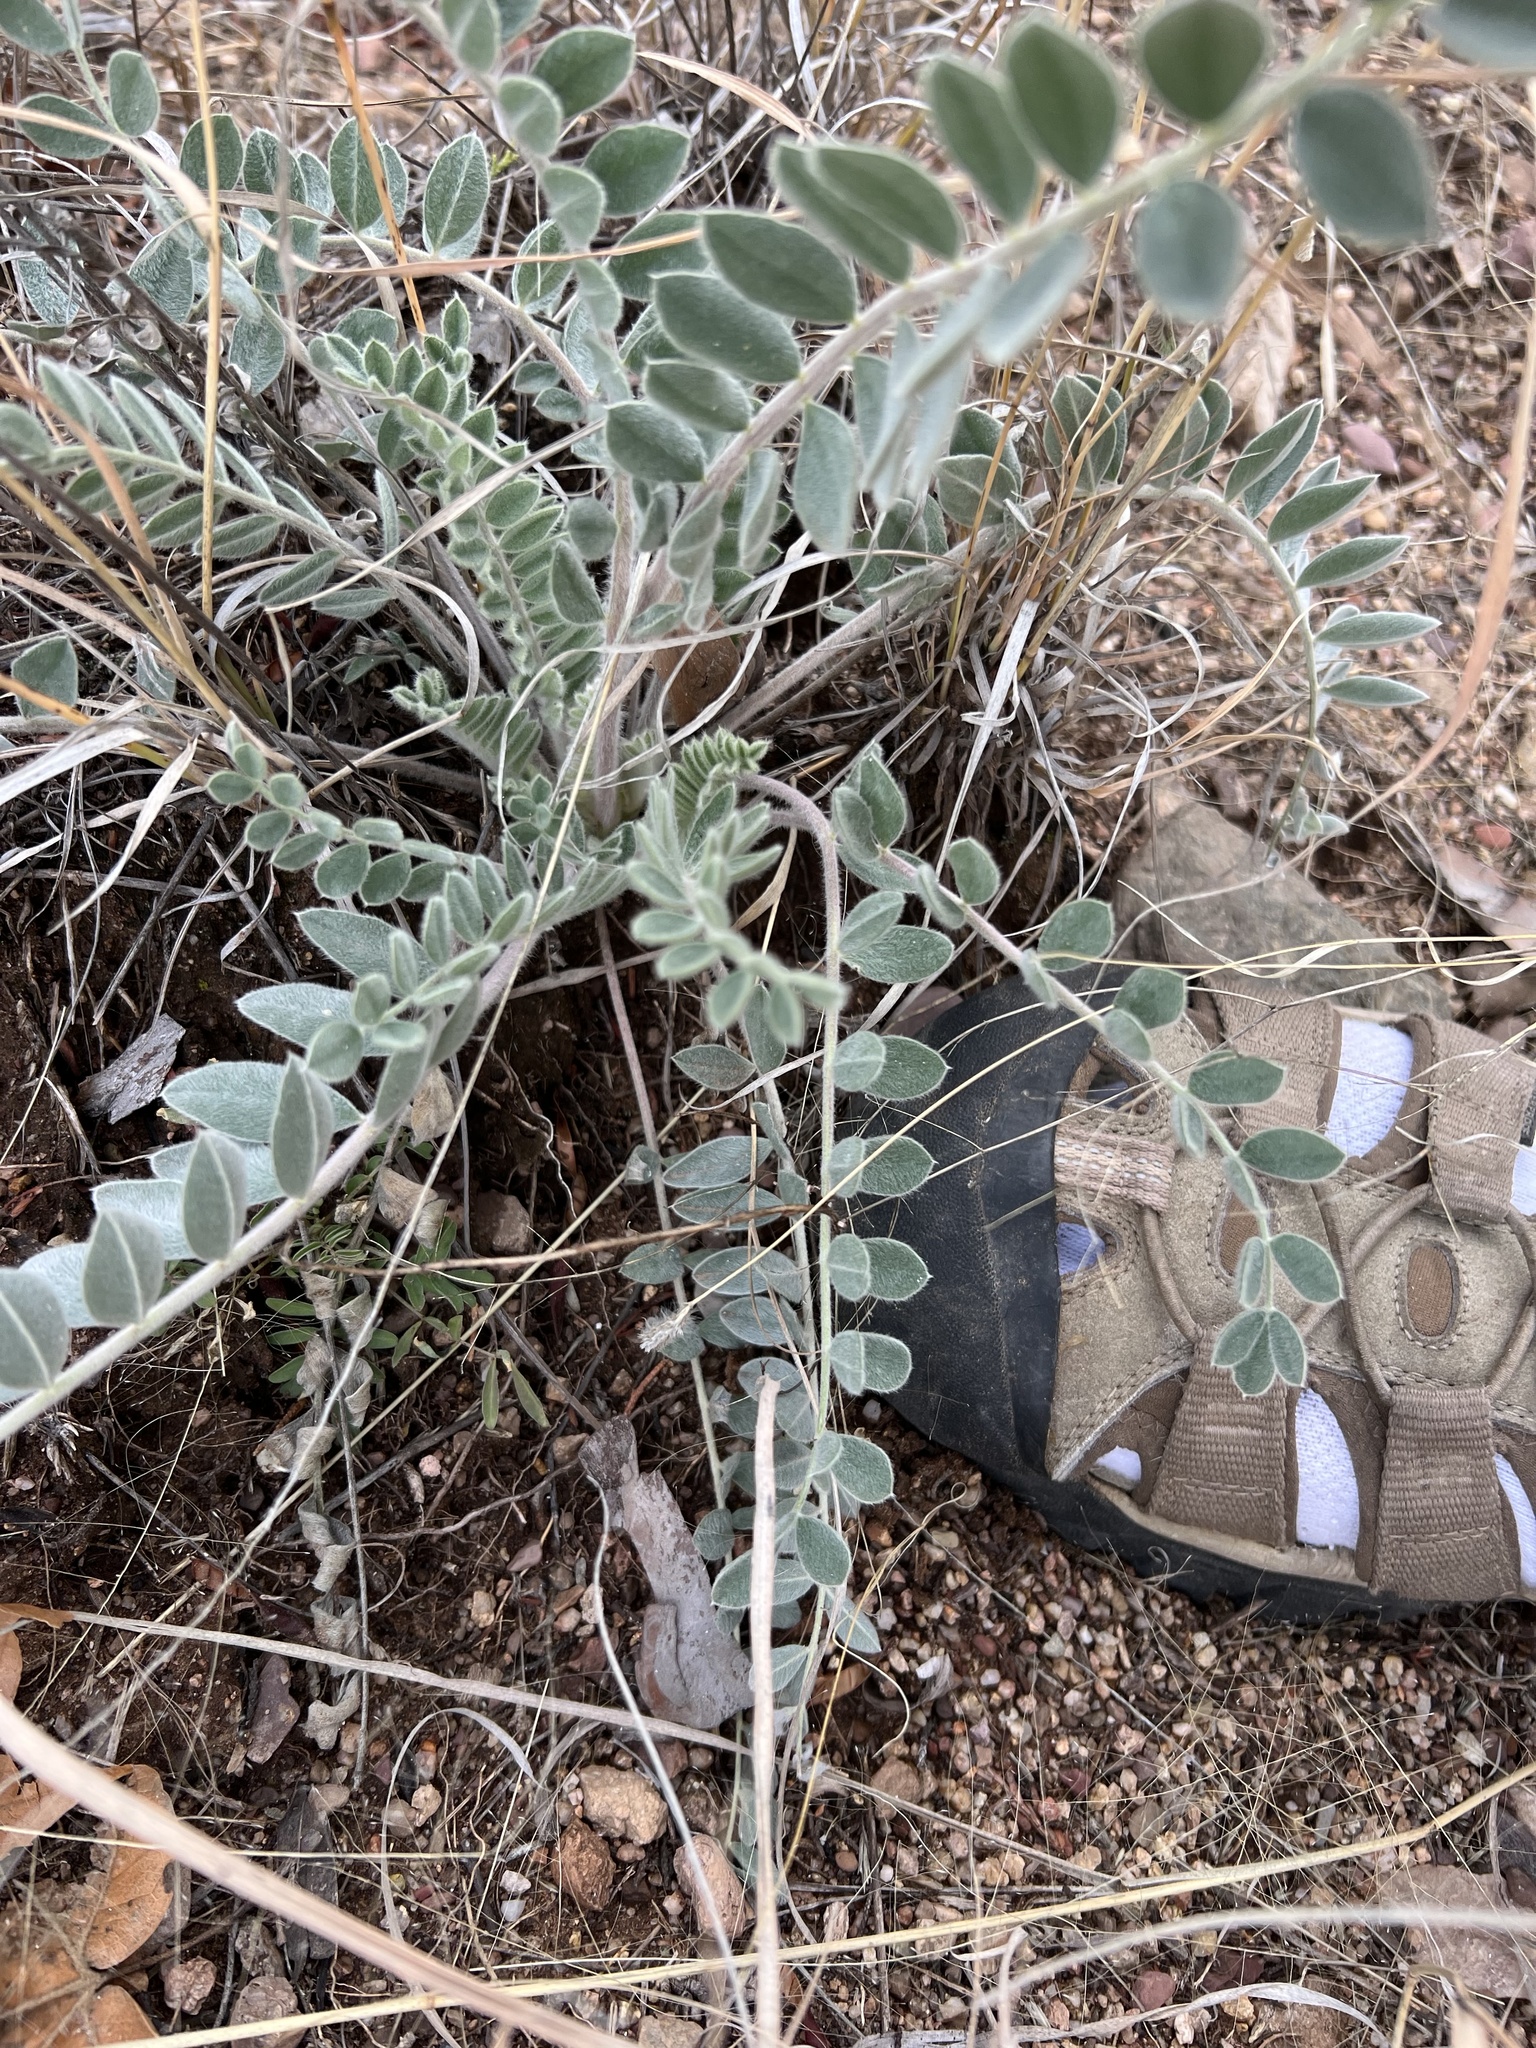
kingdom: Plantae
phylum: Tracheophyta
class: Magnoliopsida
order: Fabales
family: Fabaceae
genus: Astragalus
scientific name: Astragalus mollissimus
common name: Woolly locoweed
